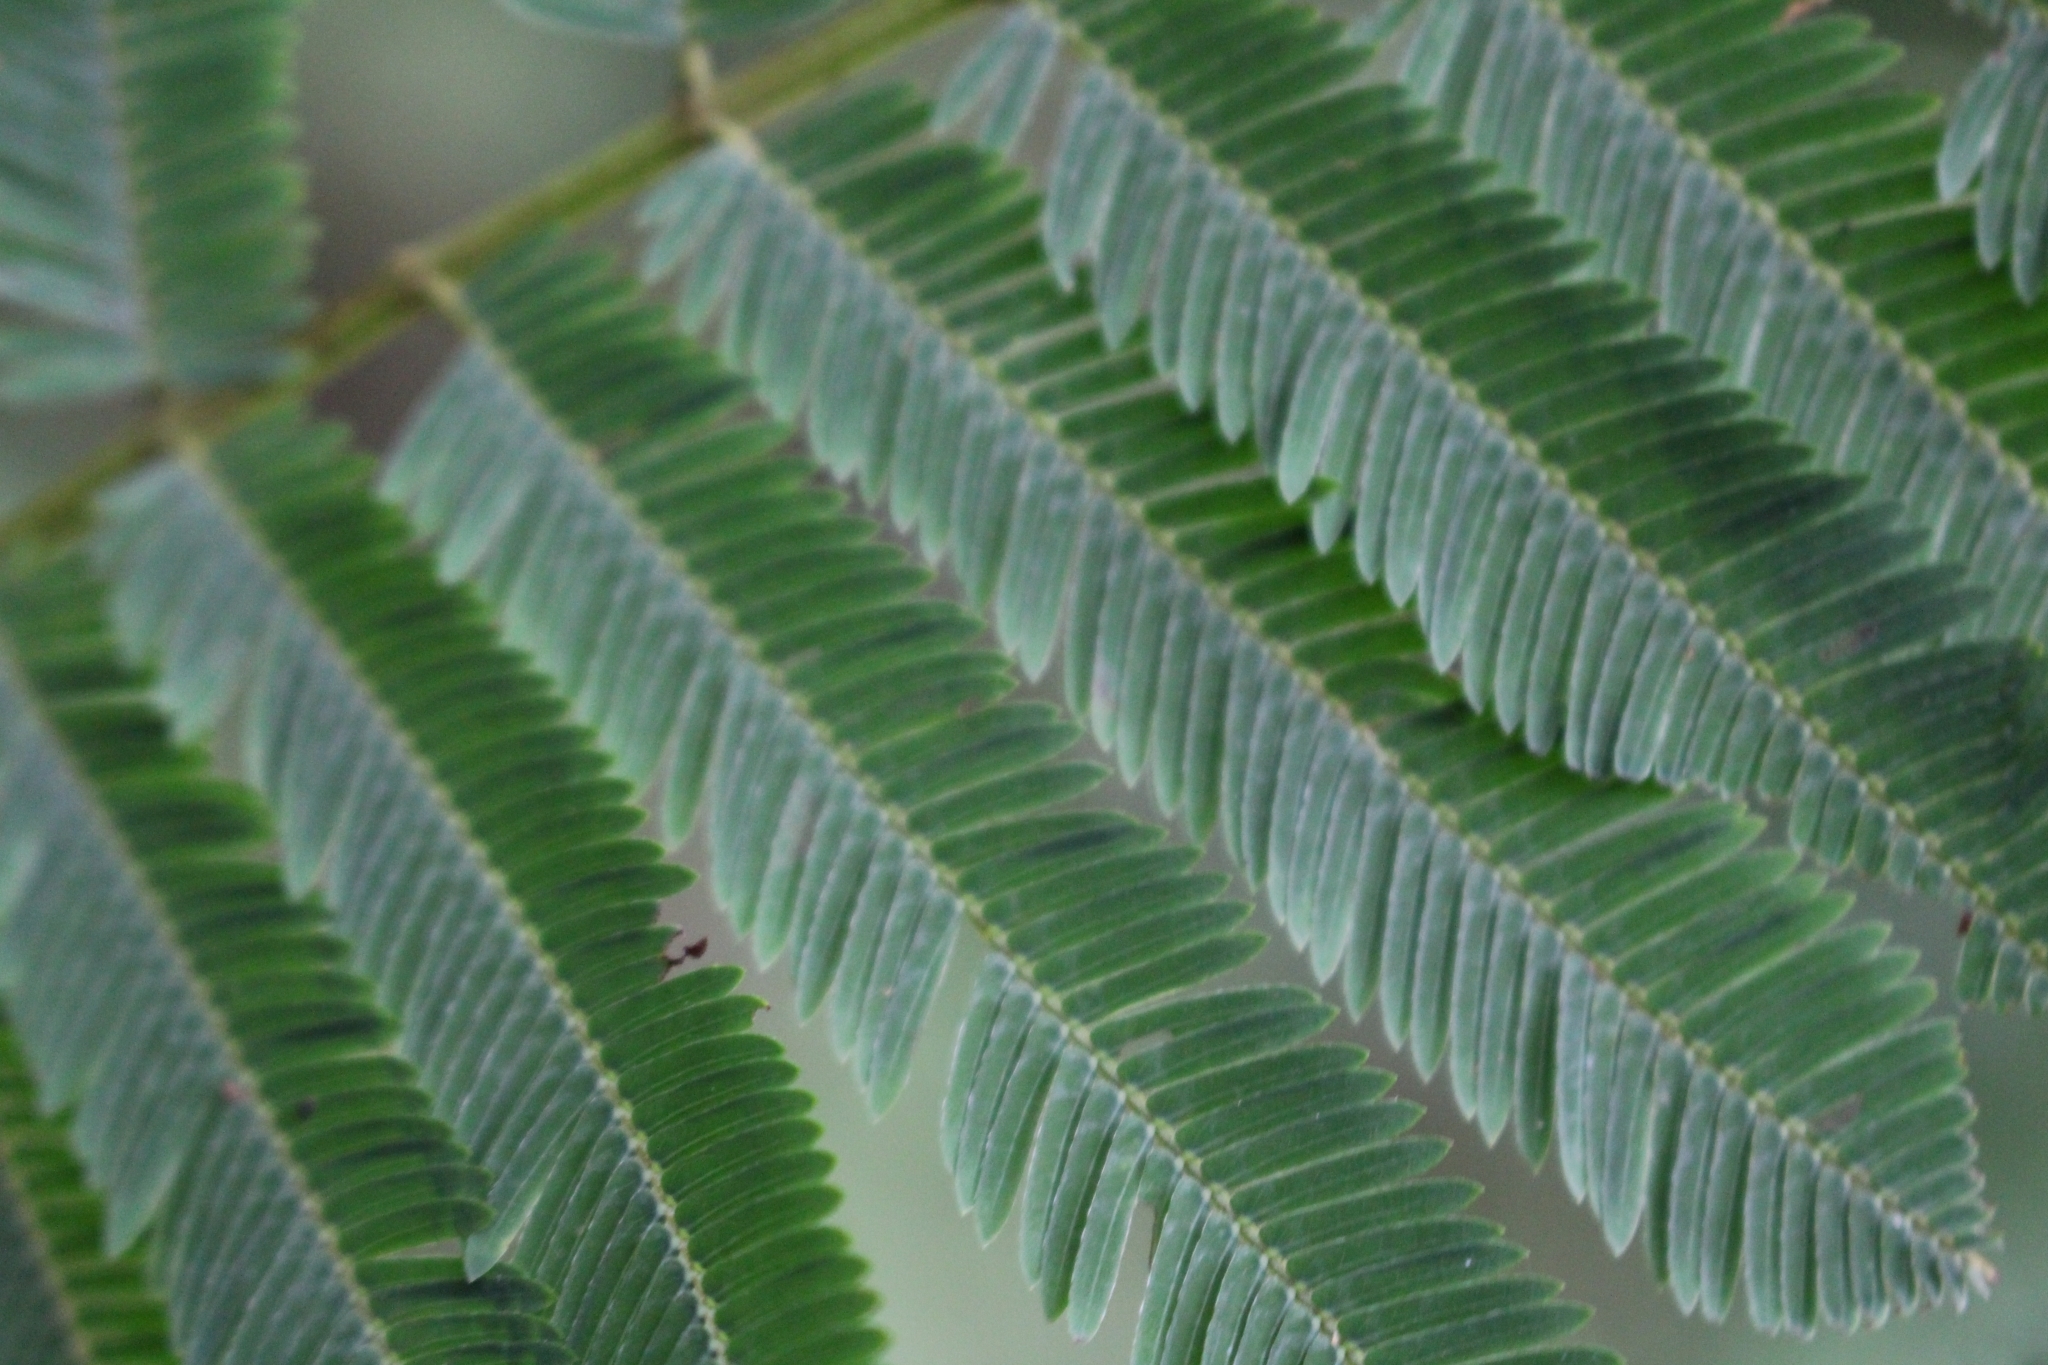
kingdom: Plantae
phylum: Tracheophyta
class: Magnoliopsida
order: Fabales
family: Fabaceae
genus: Calliandra
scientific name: Calliandra houstoniana
